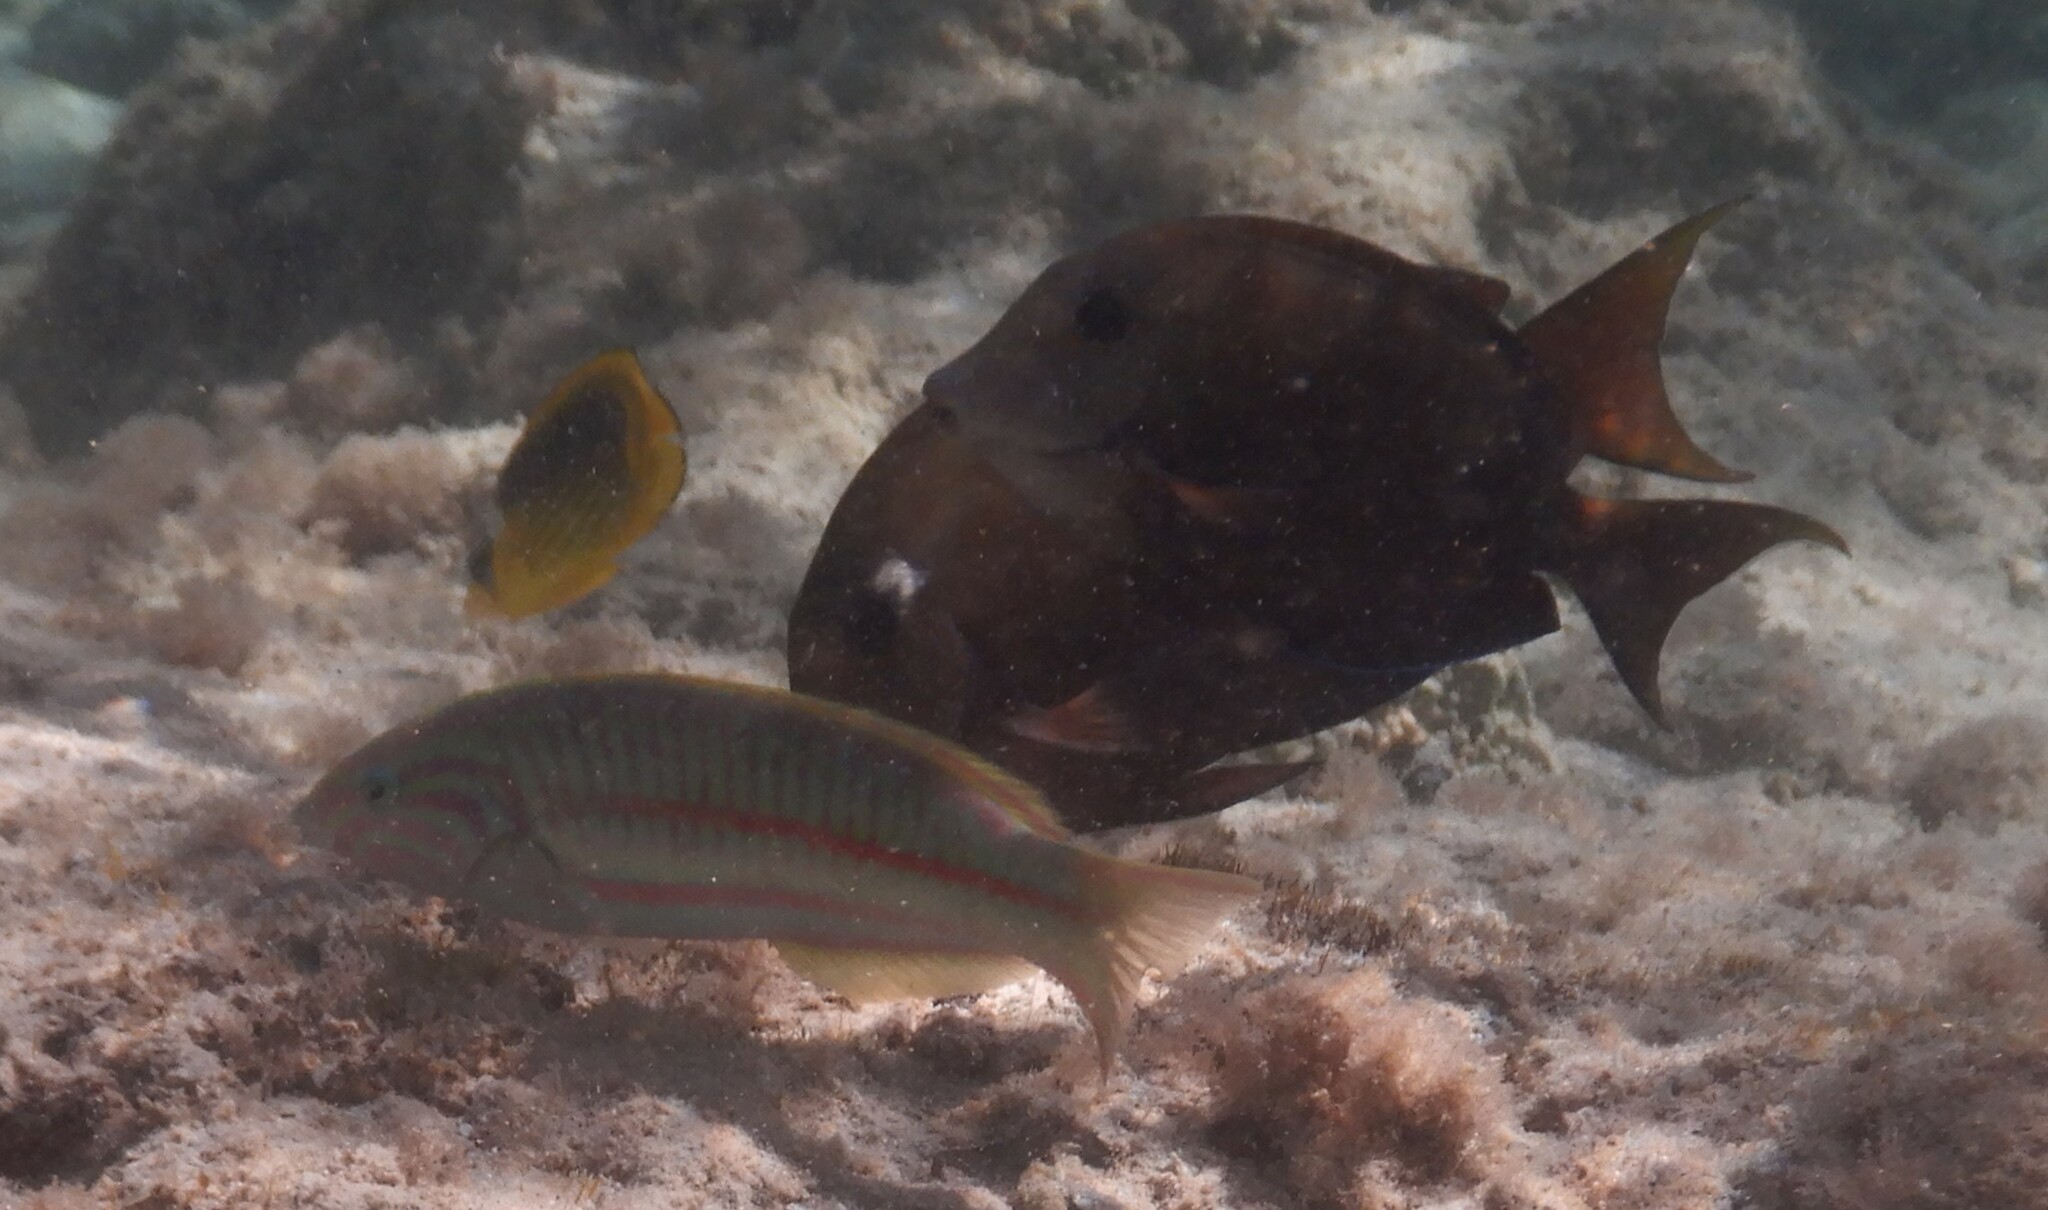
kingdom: Animalia
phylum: Chordata
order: Perciformes
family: Labridae
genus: Thalassoma
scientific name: Thalassoma rueppellii
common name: Klunzinger's wrasse
